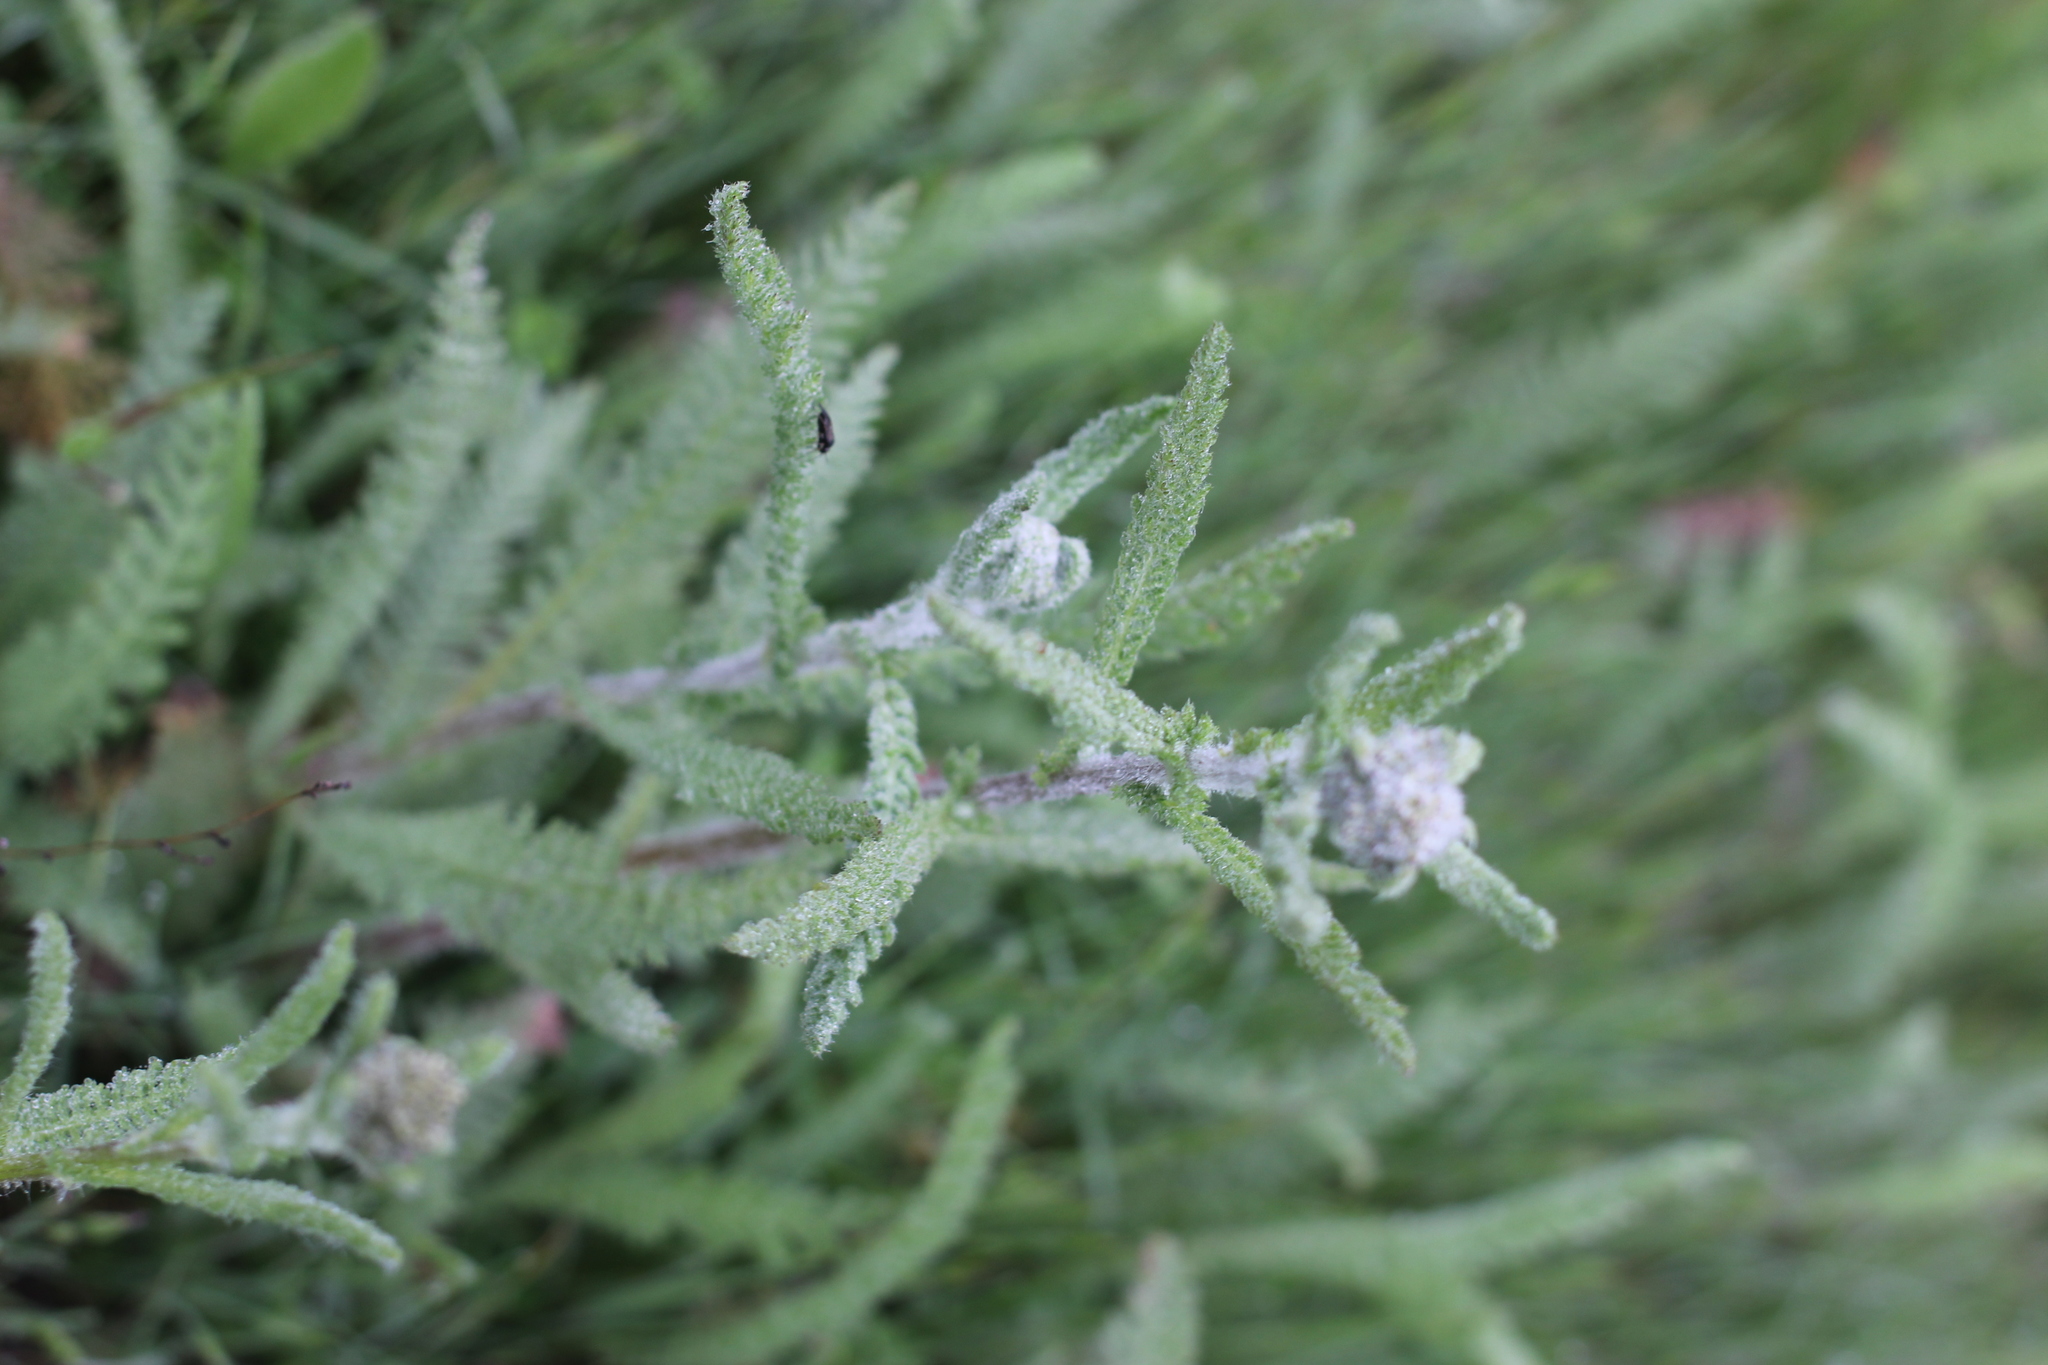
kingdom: Plantae
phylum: Tracheophyta
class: Magnoliopsida
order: Asterales
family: Asteraceae
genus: Achillea
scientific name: Achillea millefolium
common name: Yarrow
